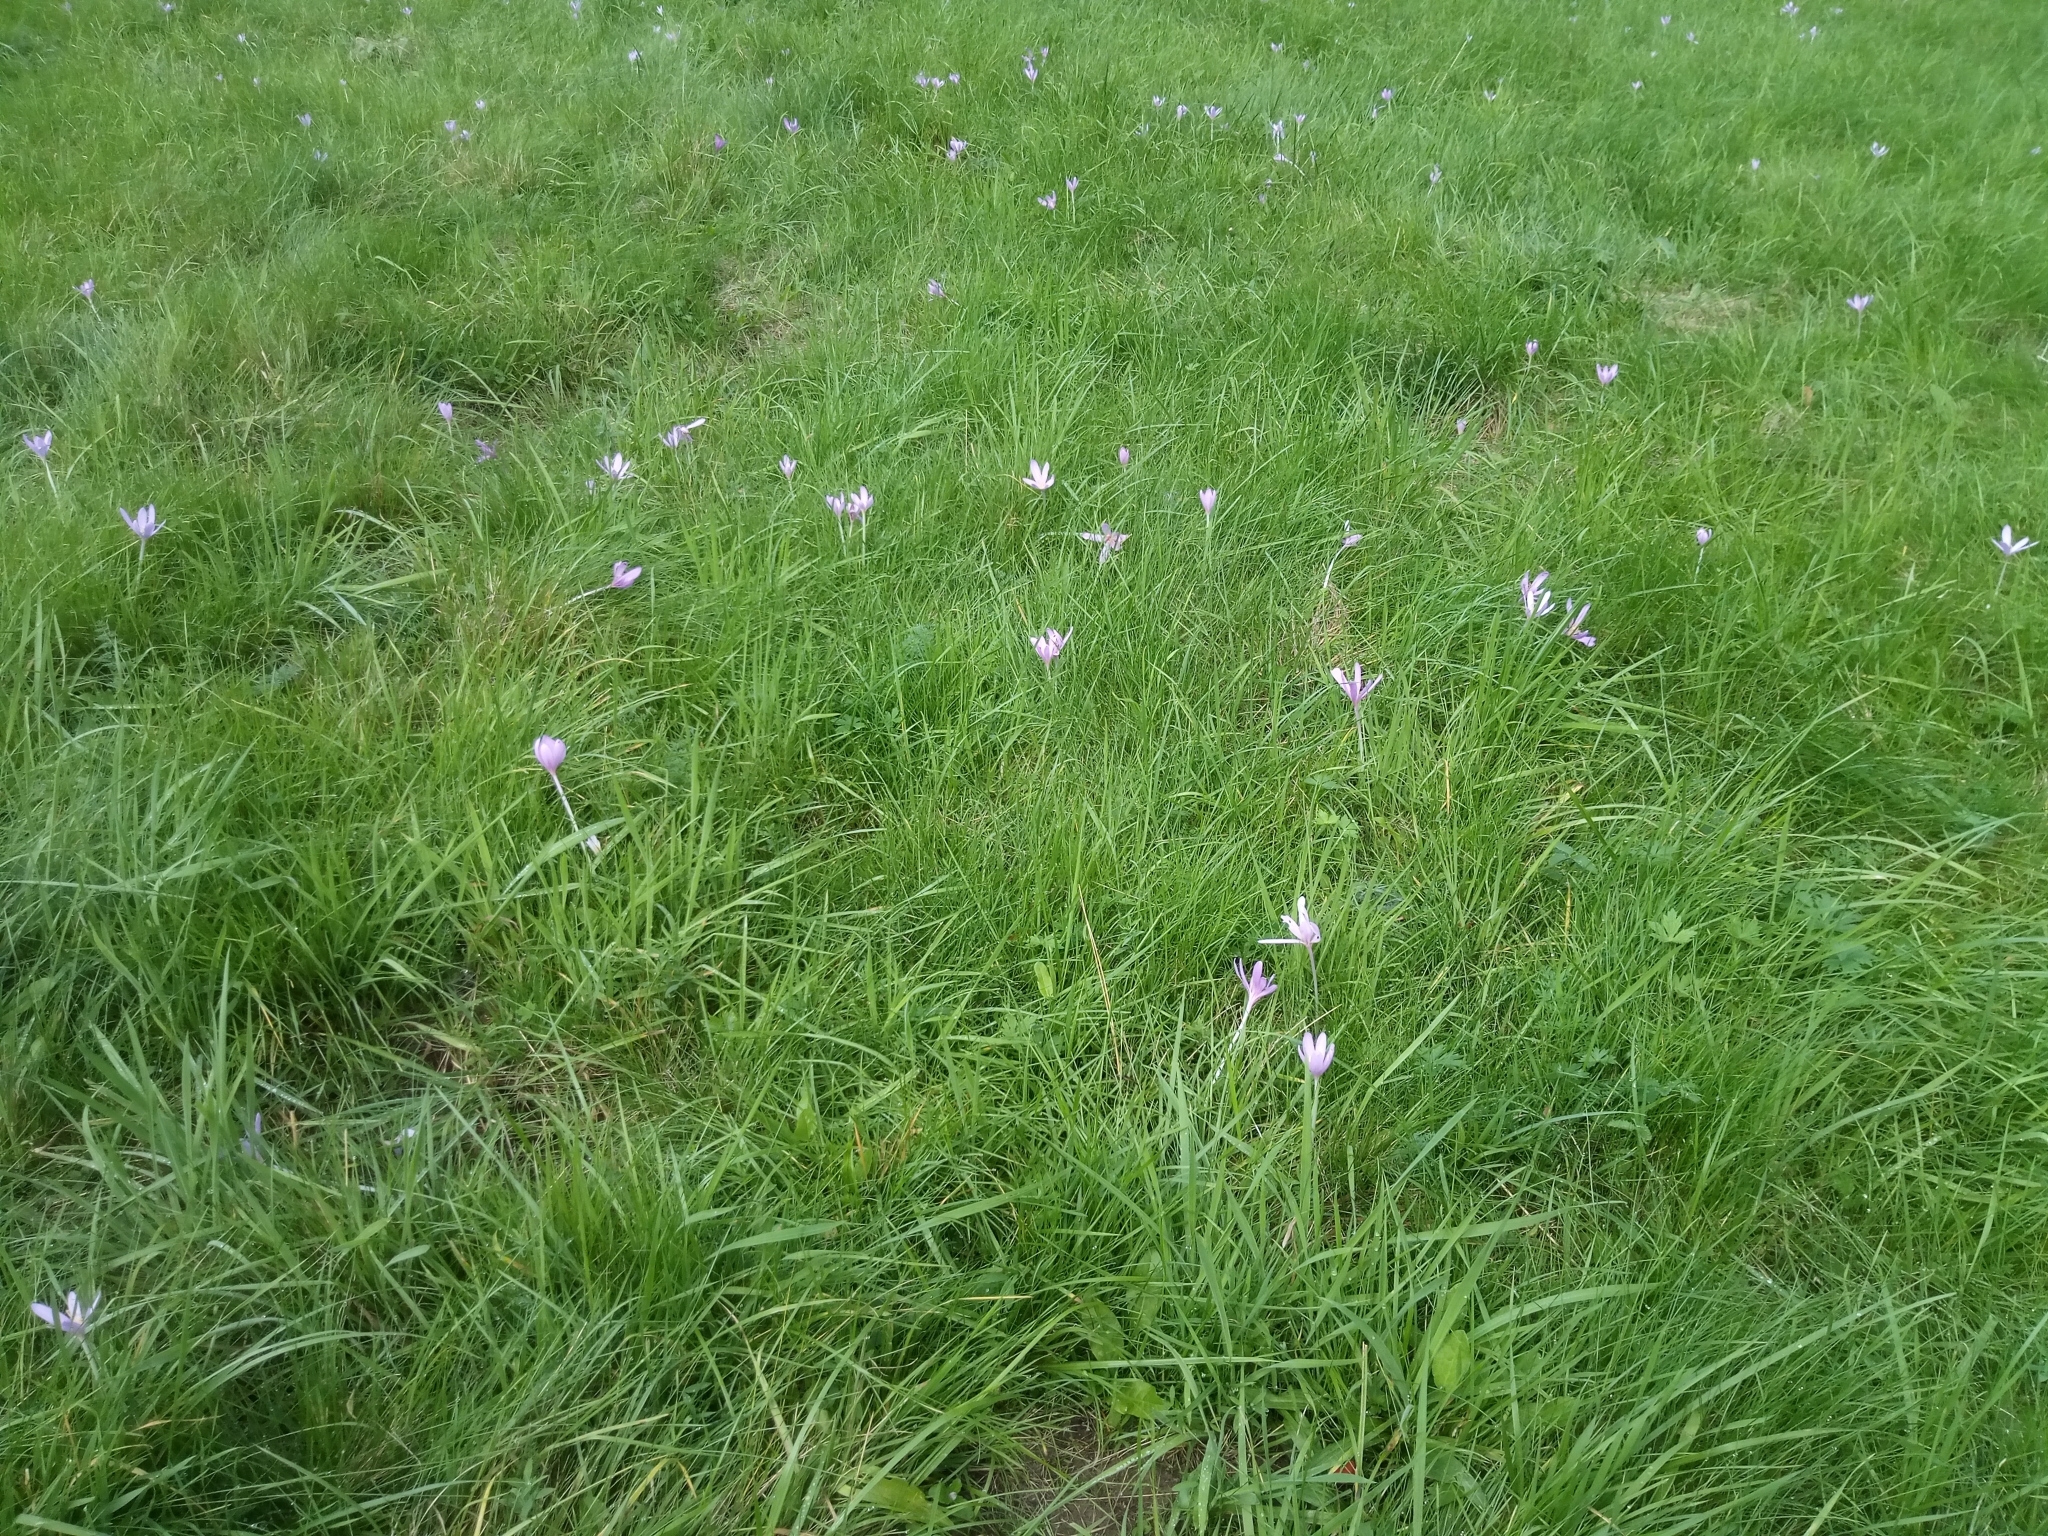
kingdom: Plantae
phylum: Tracheophyta
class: Liliopsida
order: Liliales
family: Colchicaceae
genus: Colchicum
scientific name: Colchicum autumnale
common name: Autumn crocus
